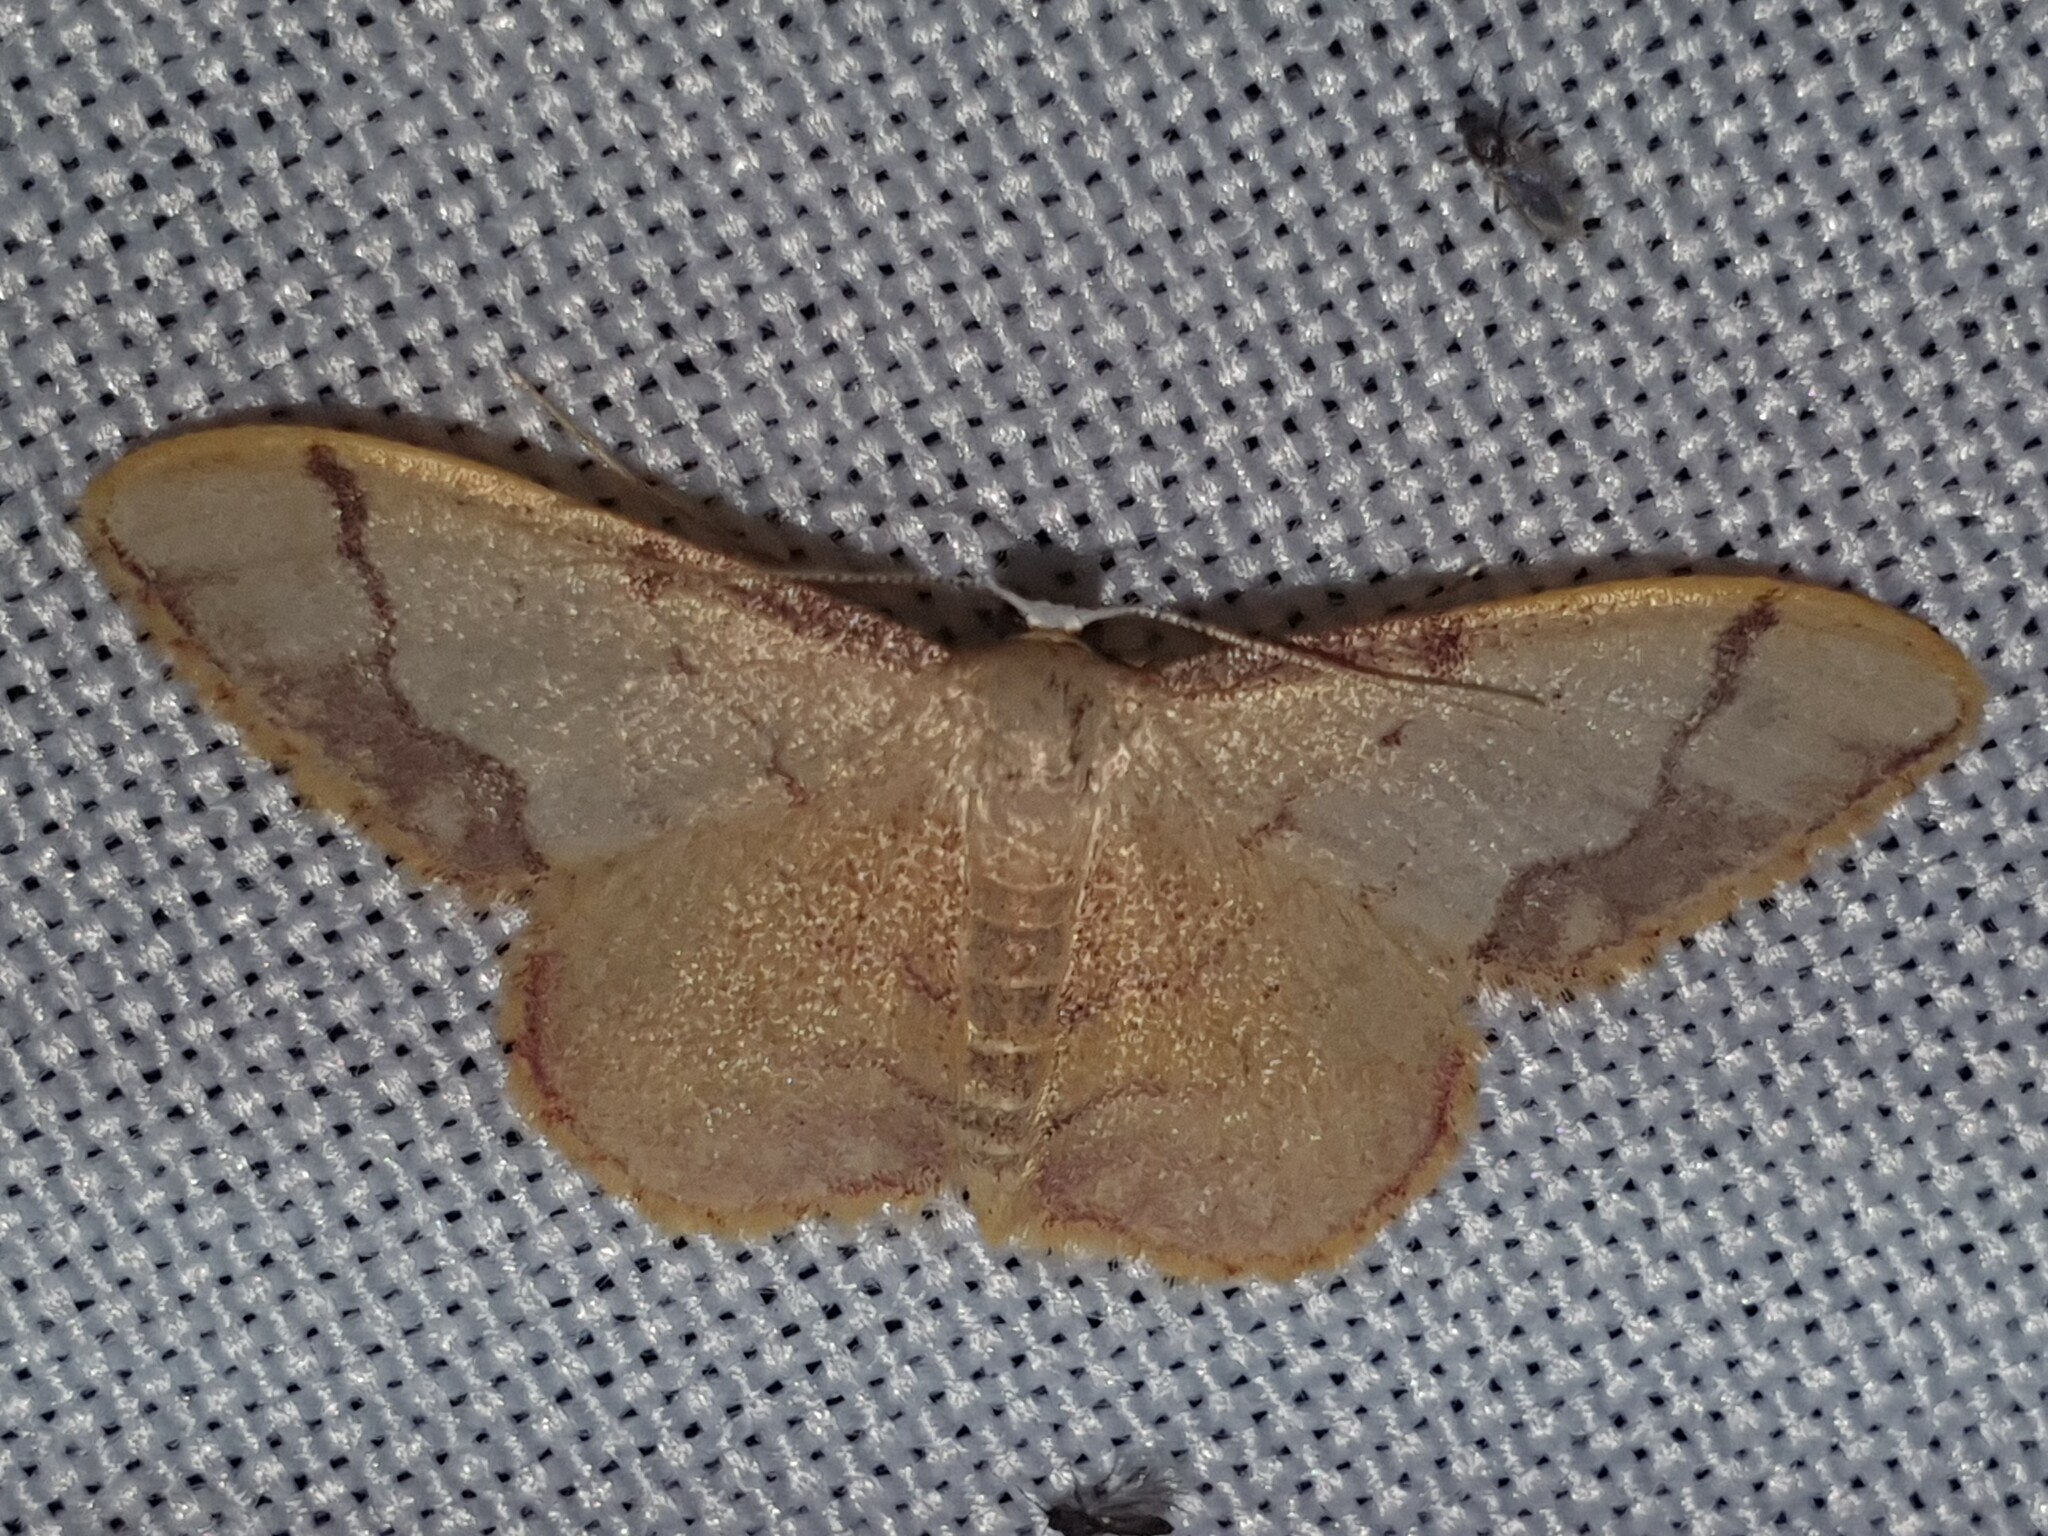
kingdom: Animalia
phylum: Arthropoda
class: Insecta
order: Lepidoptera
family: Geometridae
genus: Idaea
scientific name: Idaea ostrinaria
